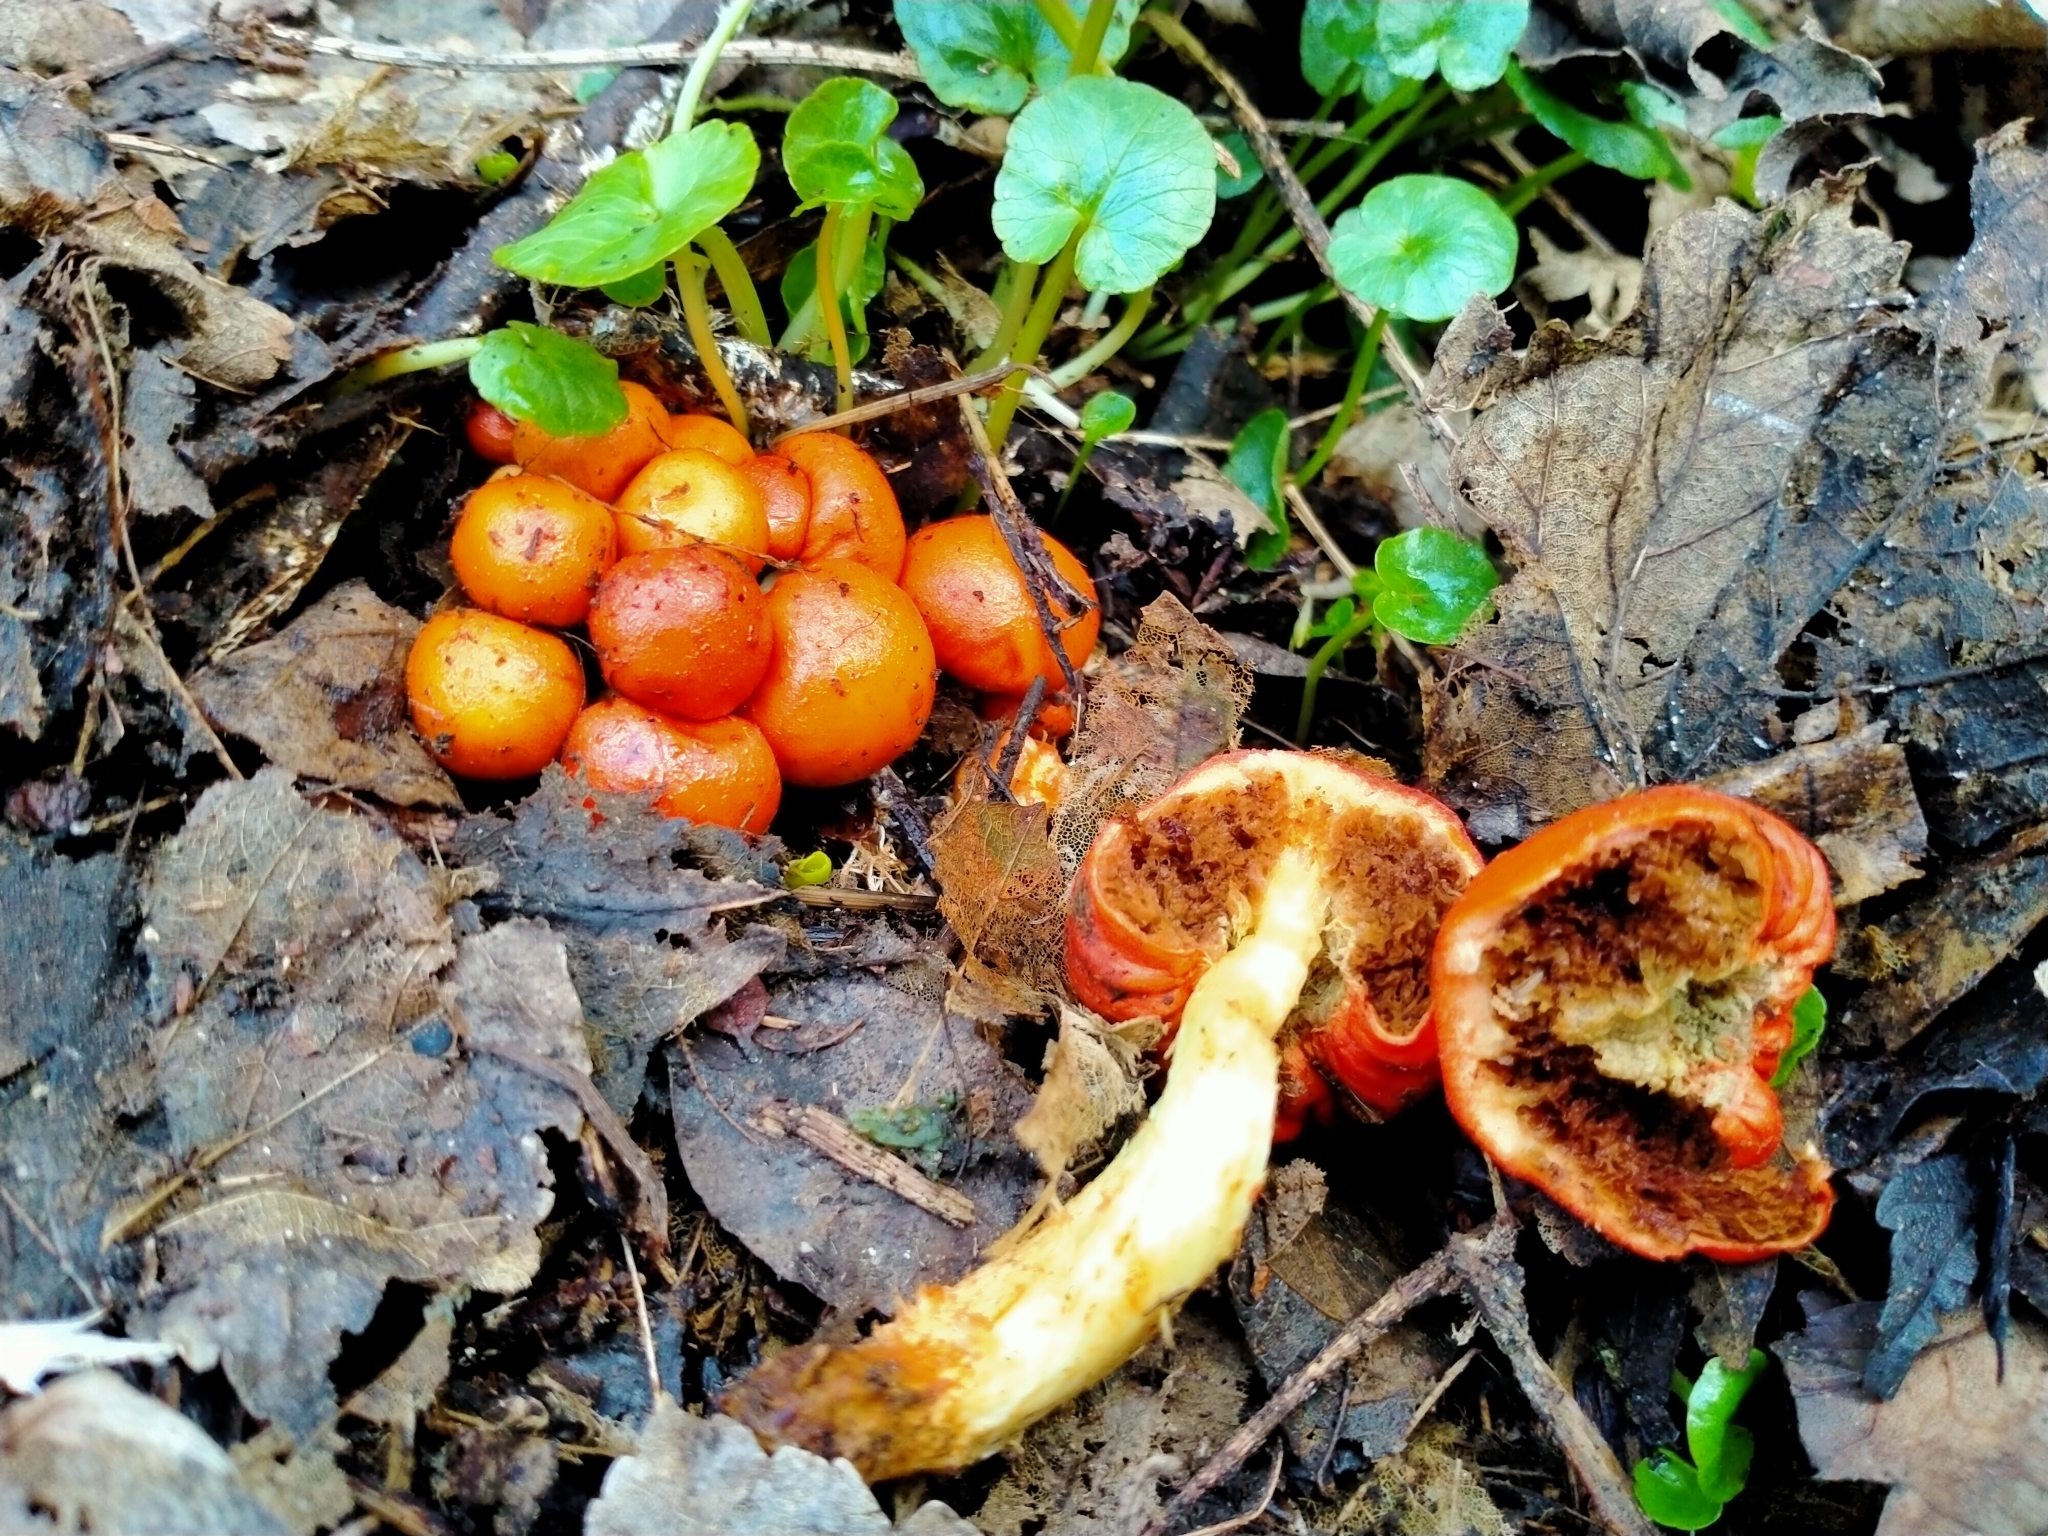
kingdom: Fungi
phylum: Basidiomycota
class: Agaricomycetes
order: Agaricales
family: Strophariaceae
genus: Leratiomyces
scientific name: Leratiomyces erythrocephalus
